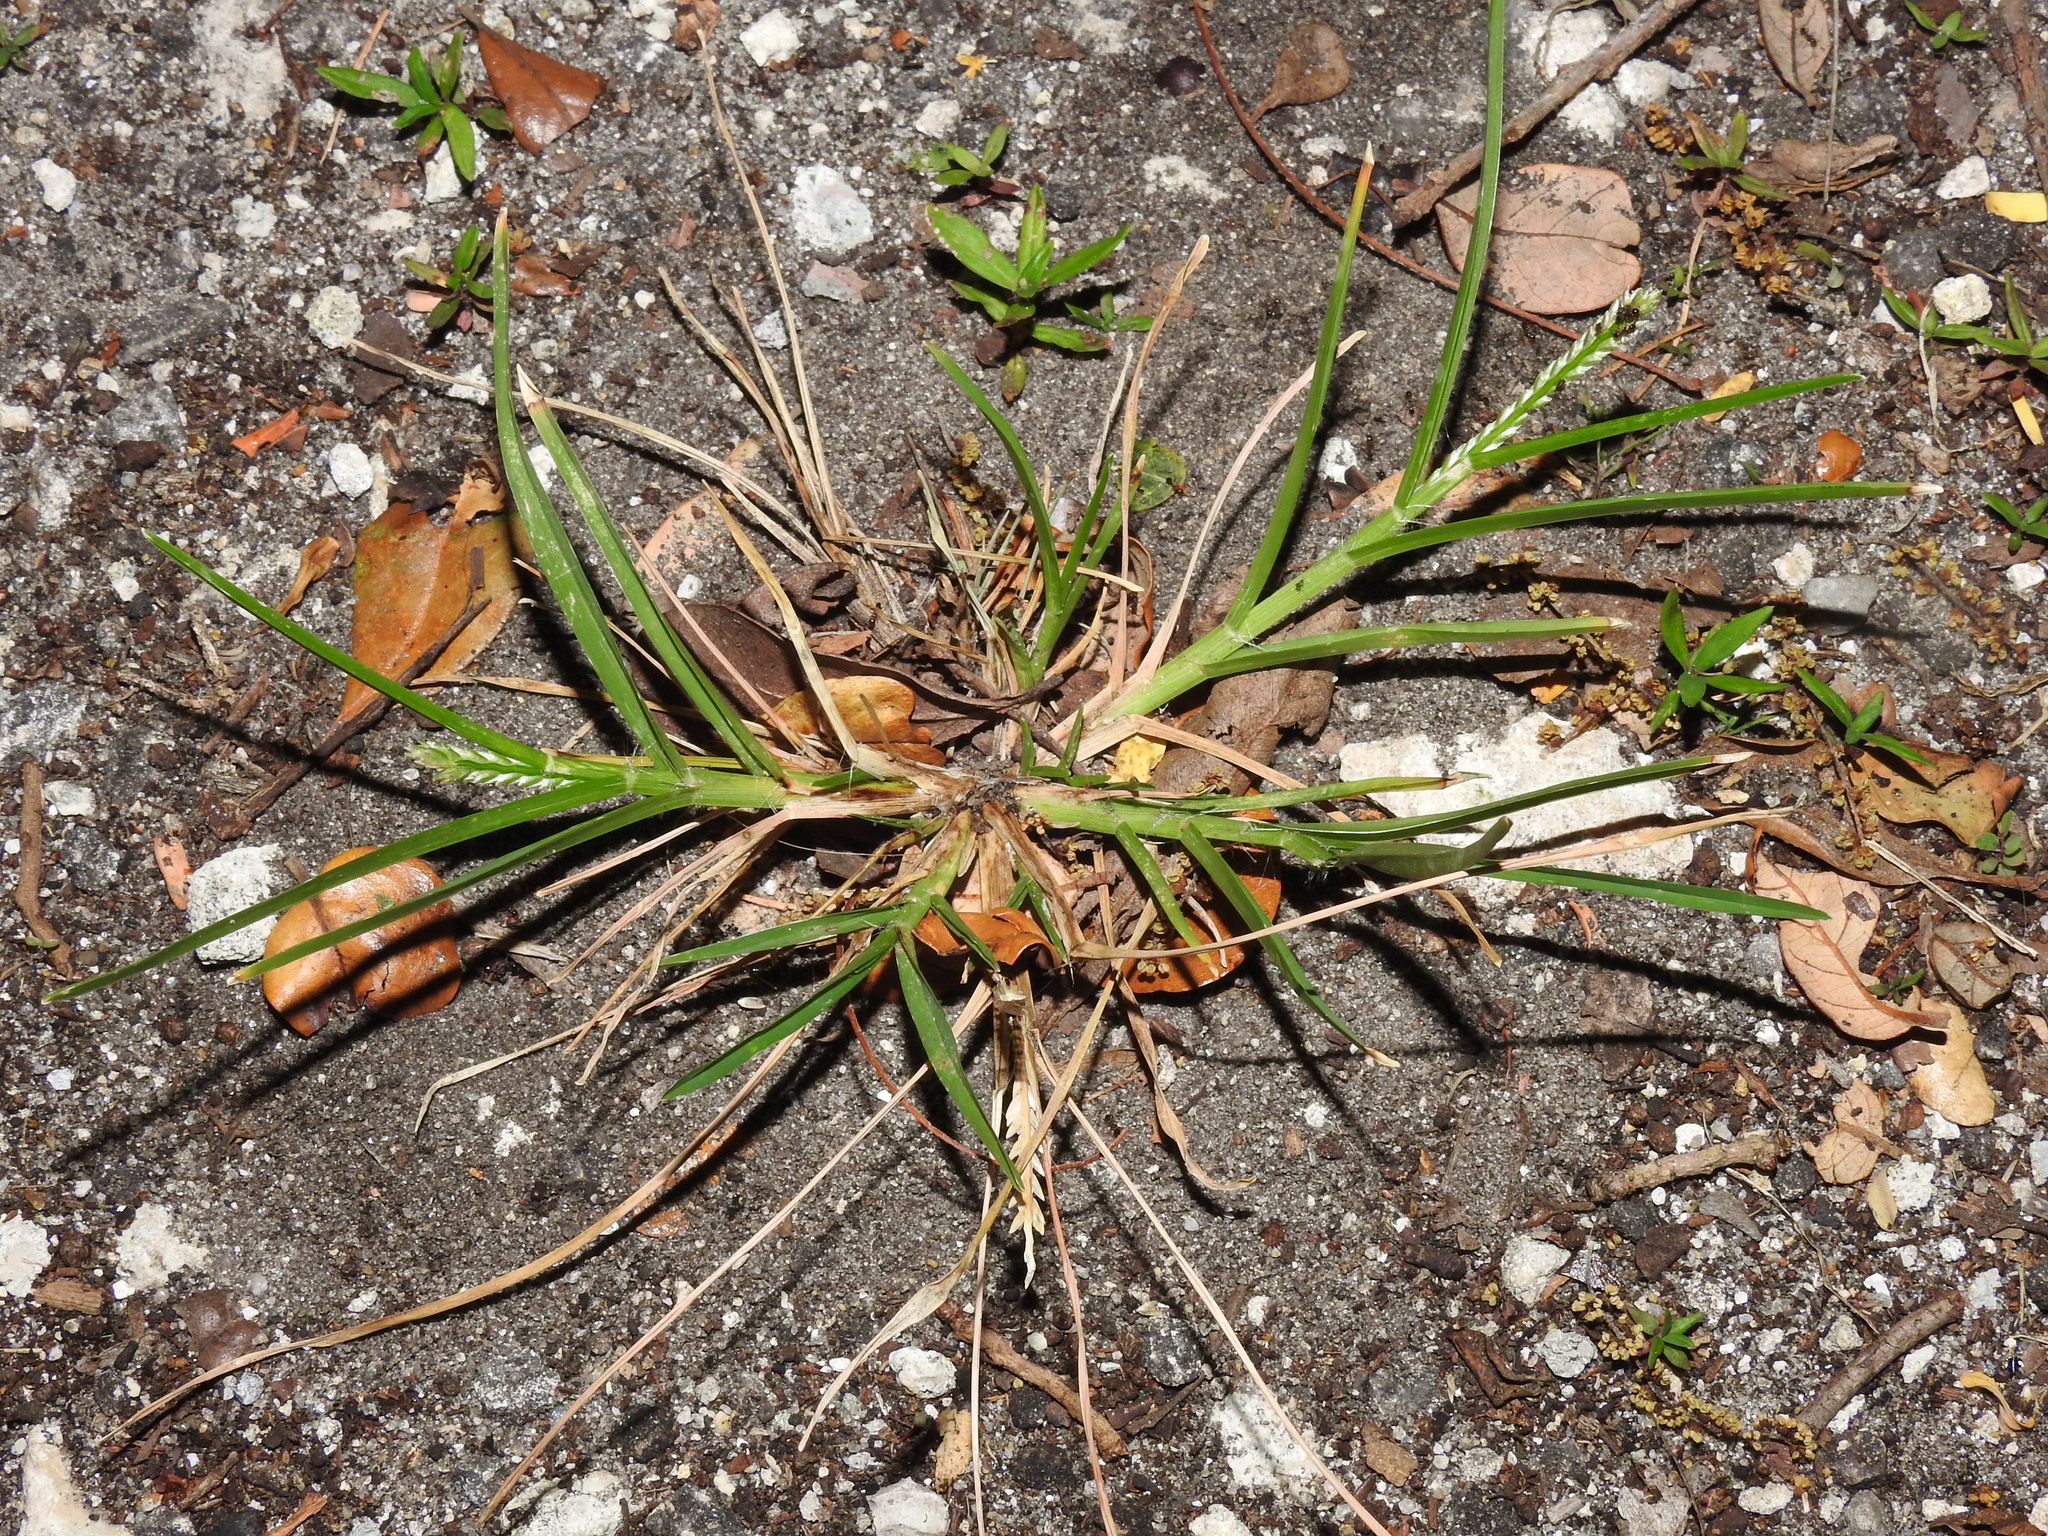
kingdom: Plantae
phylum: Tracheophyta
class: Liliopsida
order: Poales
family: Poaceae
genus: Eleusine
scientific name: Eleusine indica
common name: Yard-grass
